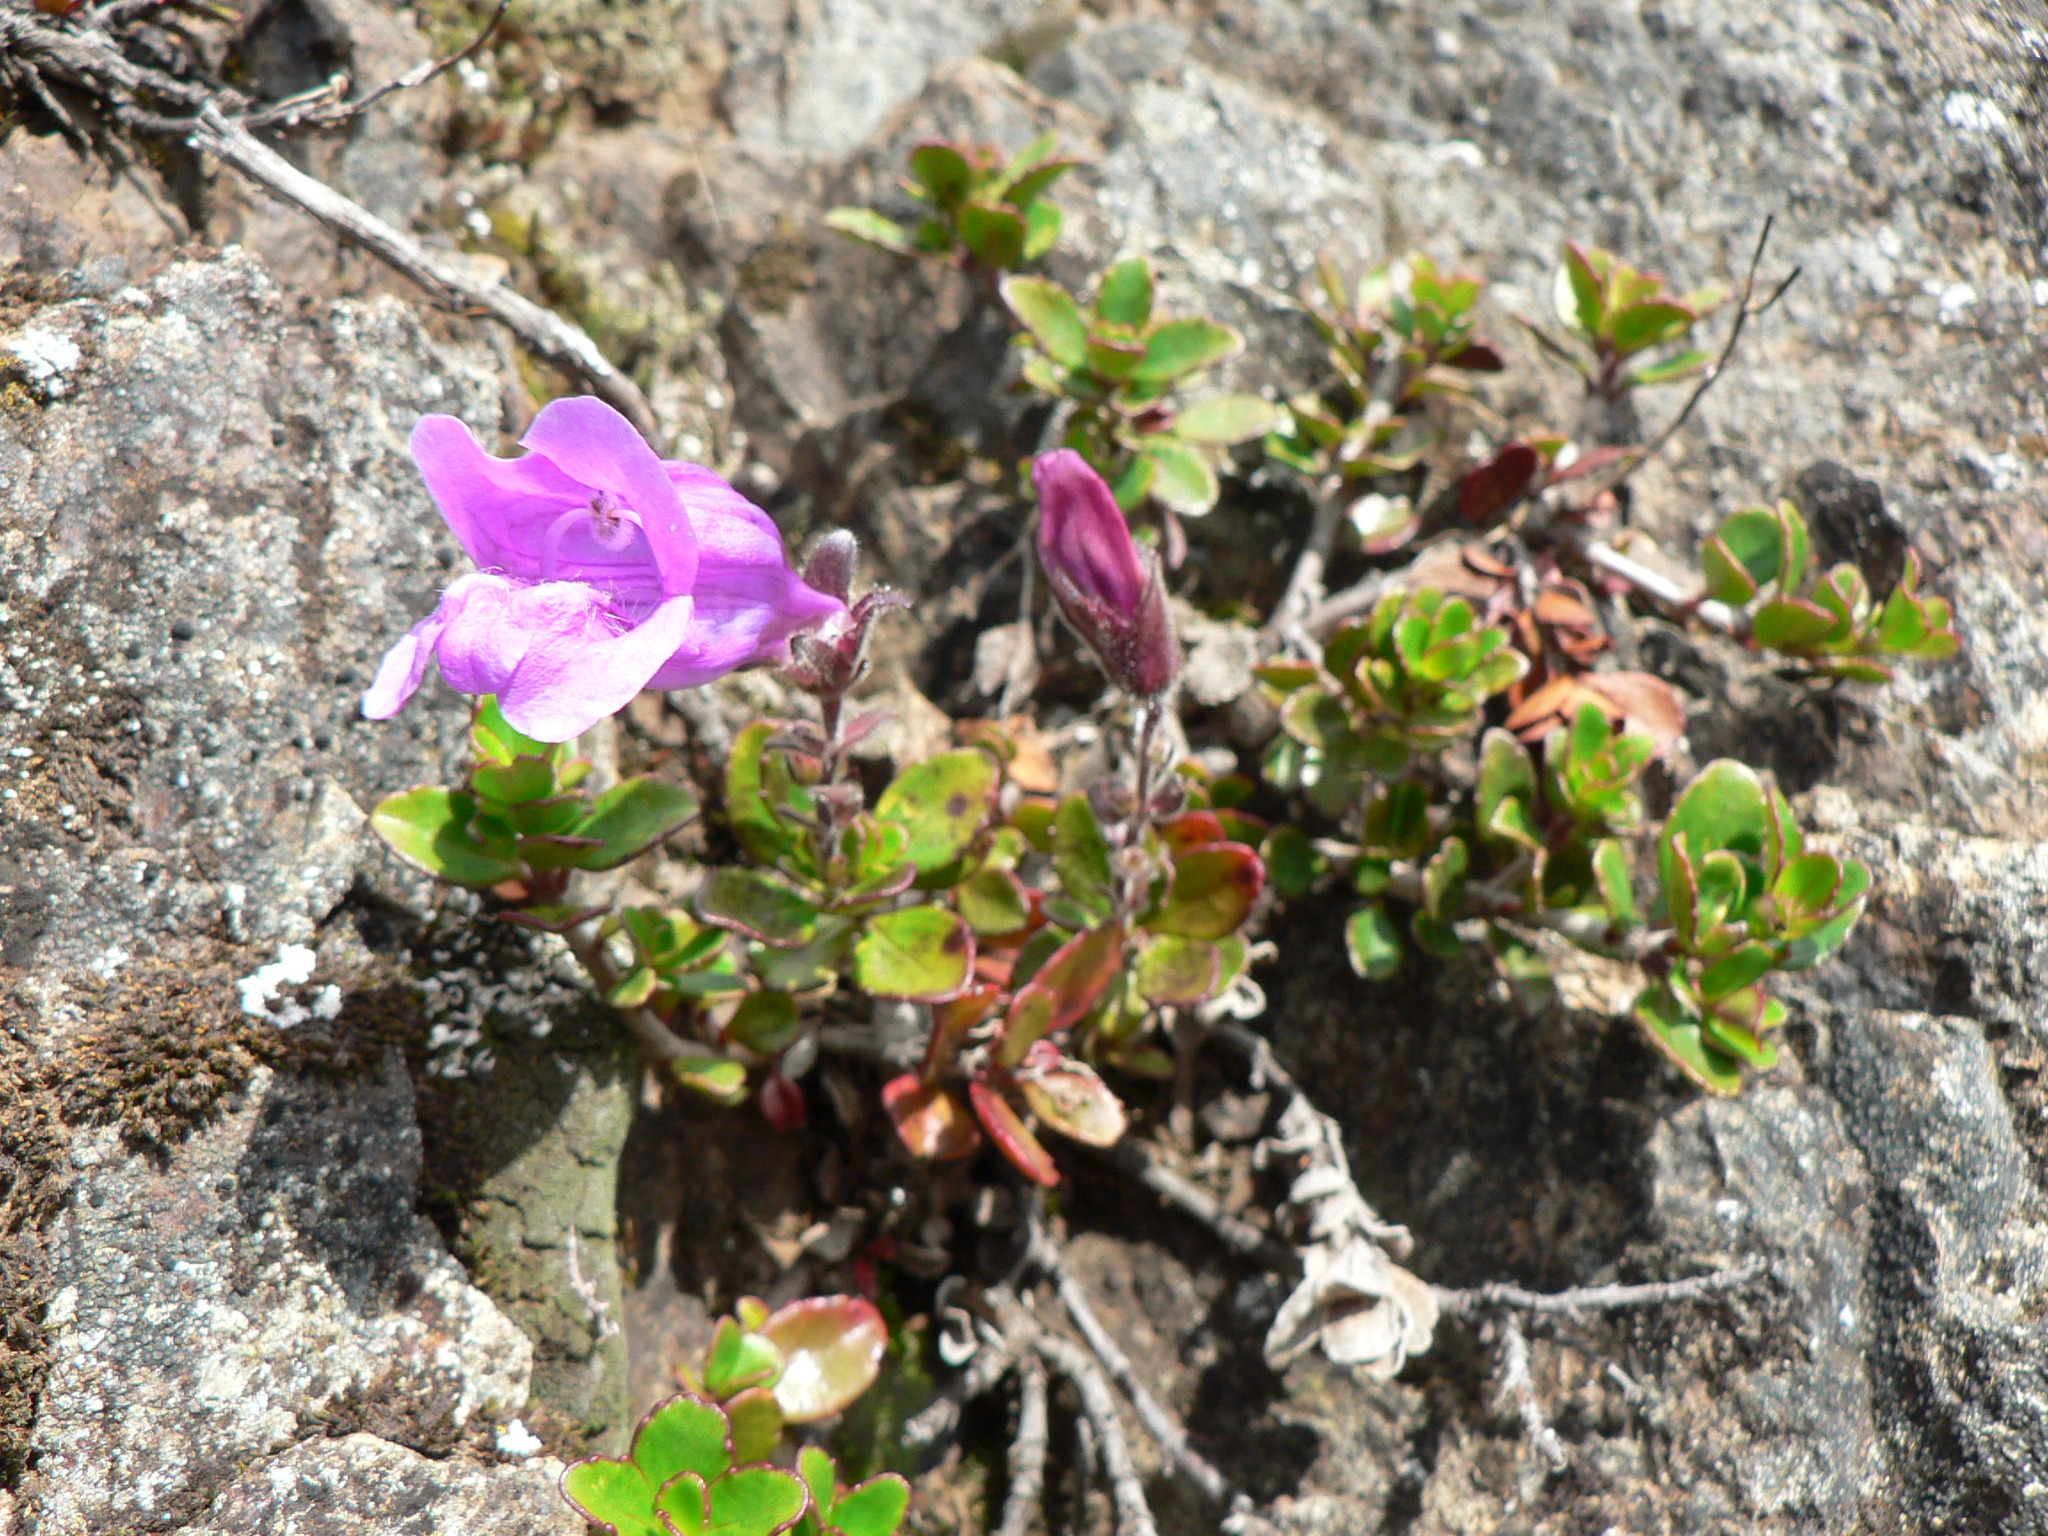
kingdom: Plantae
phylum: Tracheophyta
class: Magnoliopsida
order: Lamiales
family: Plantaginaceae
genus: Penstemon
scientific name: Penstemon davidsonii
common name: Davidson's penstemon
